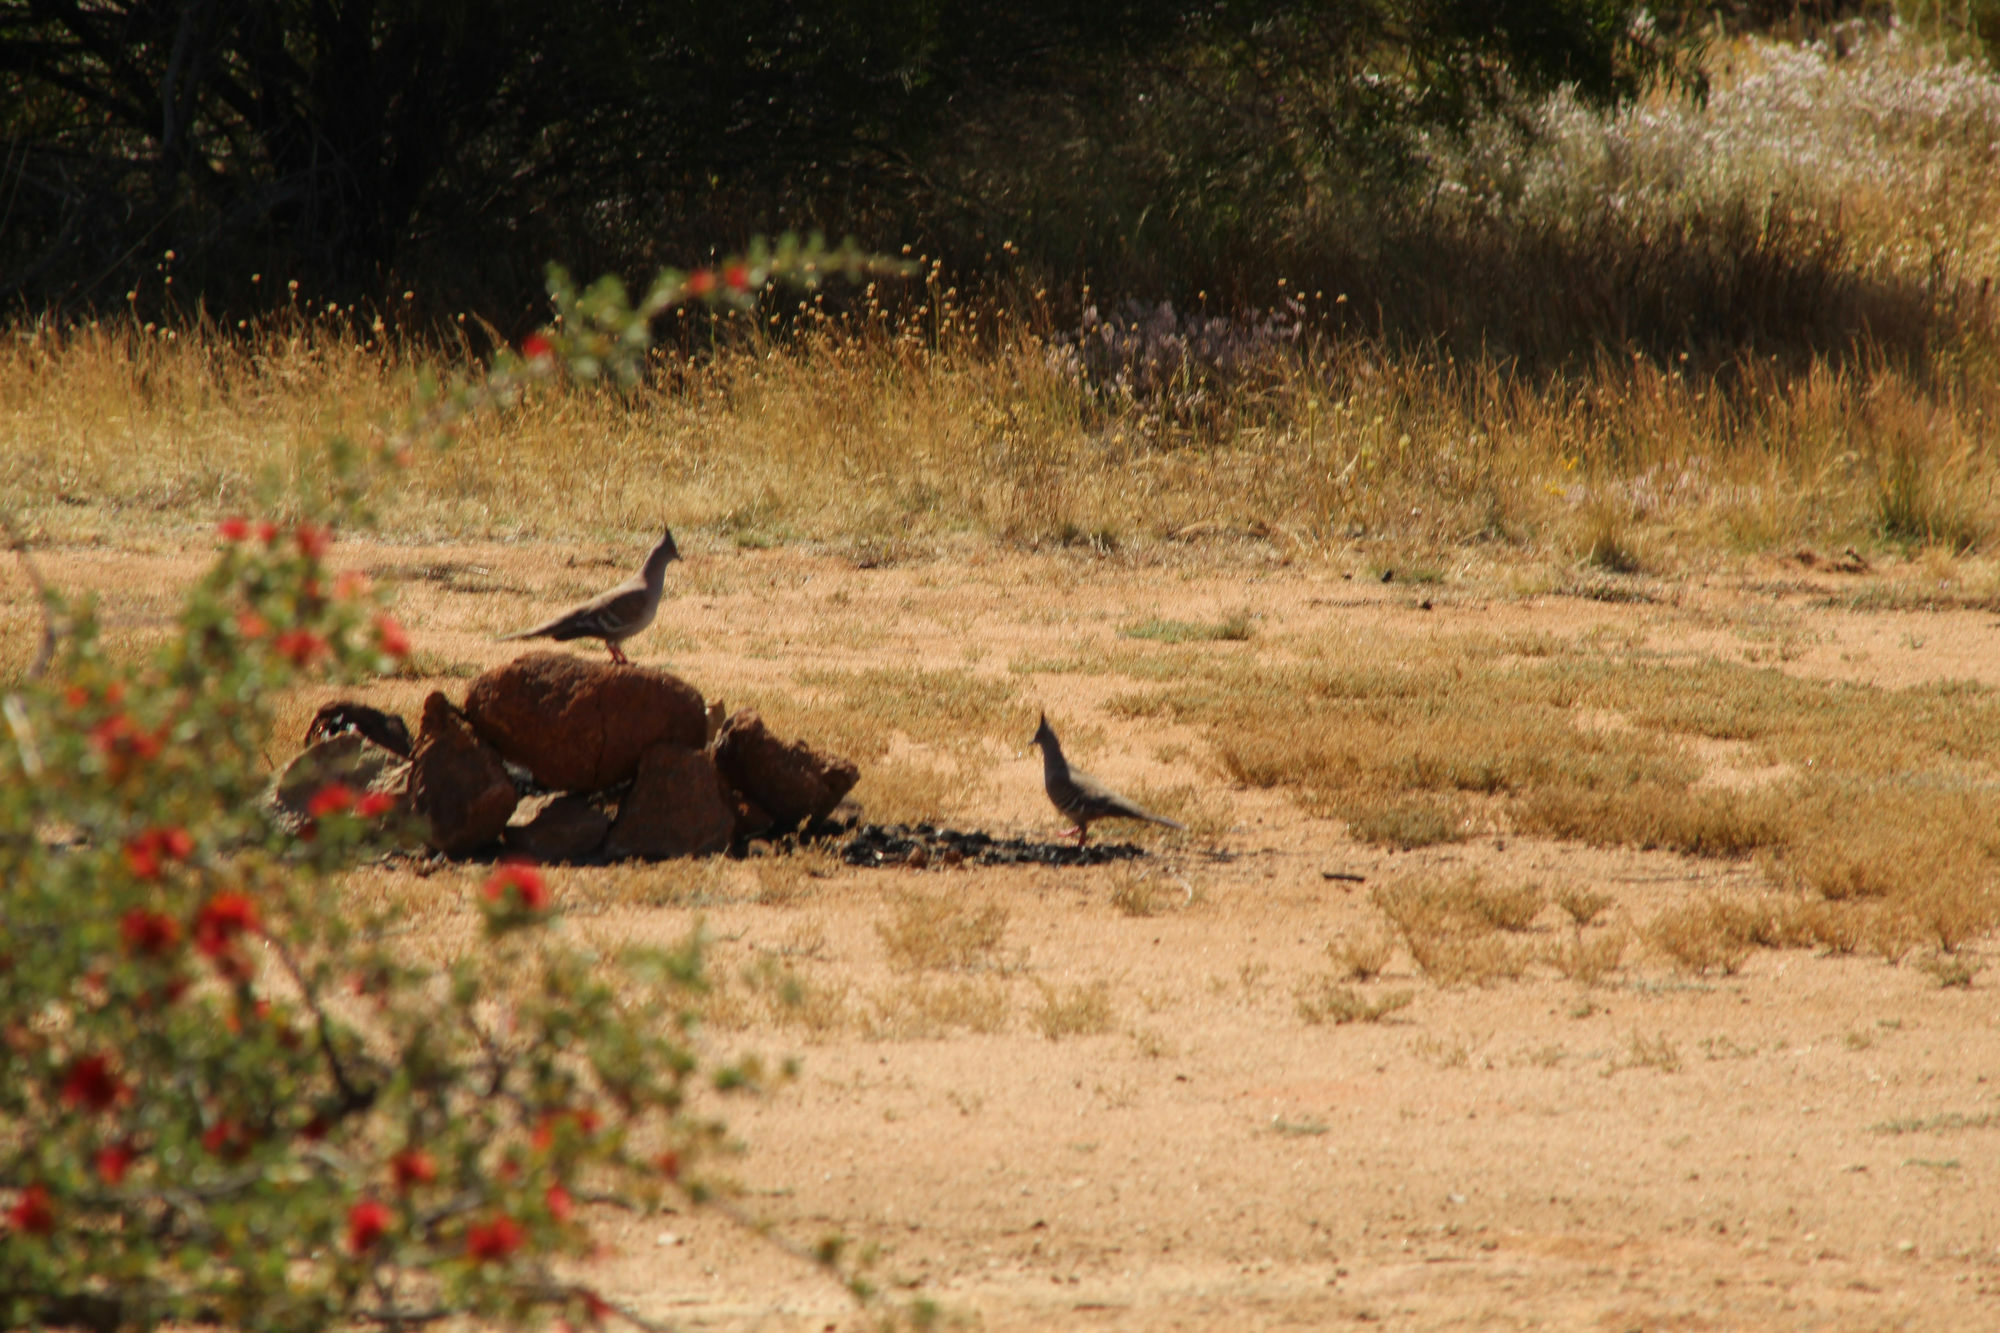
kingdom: Animalia
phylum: Chordata
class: Aves
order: Columbiformes
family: Columbidae
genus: Ocyphaps
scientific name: Ocyphaps lophotes
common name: Crested pigeon
